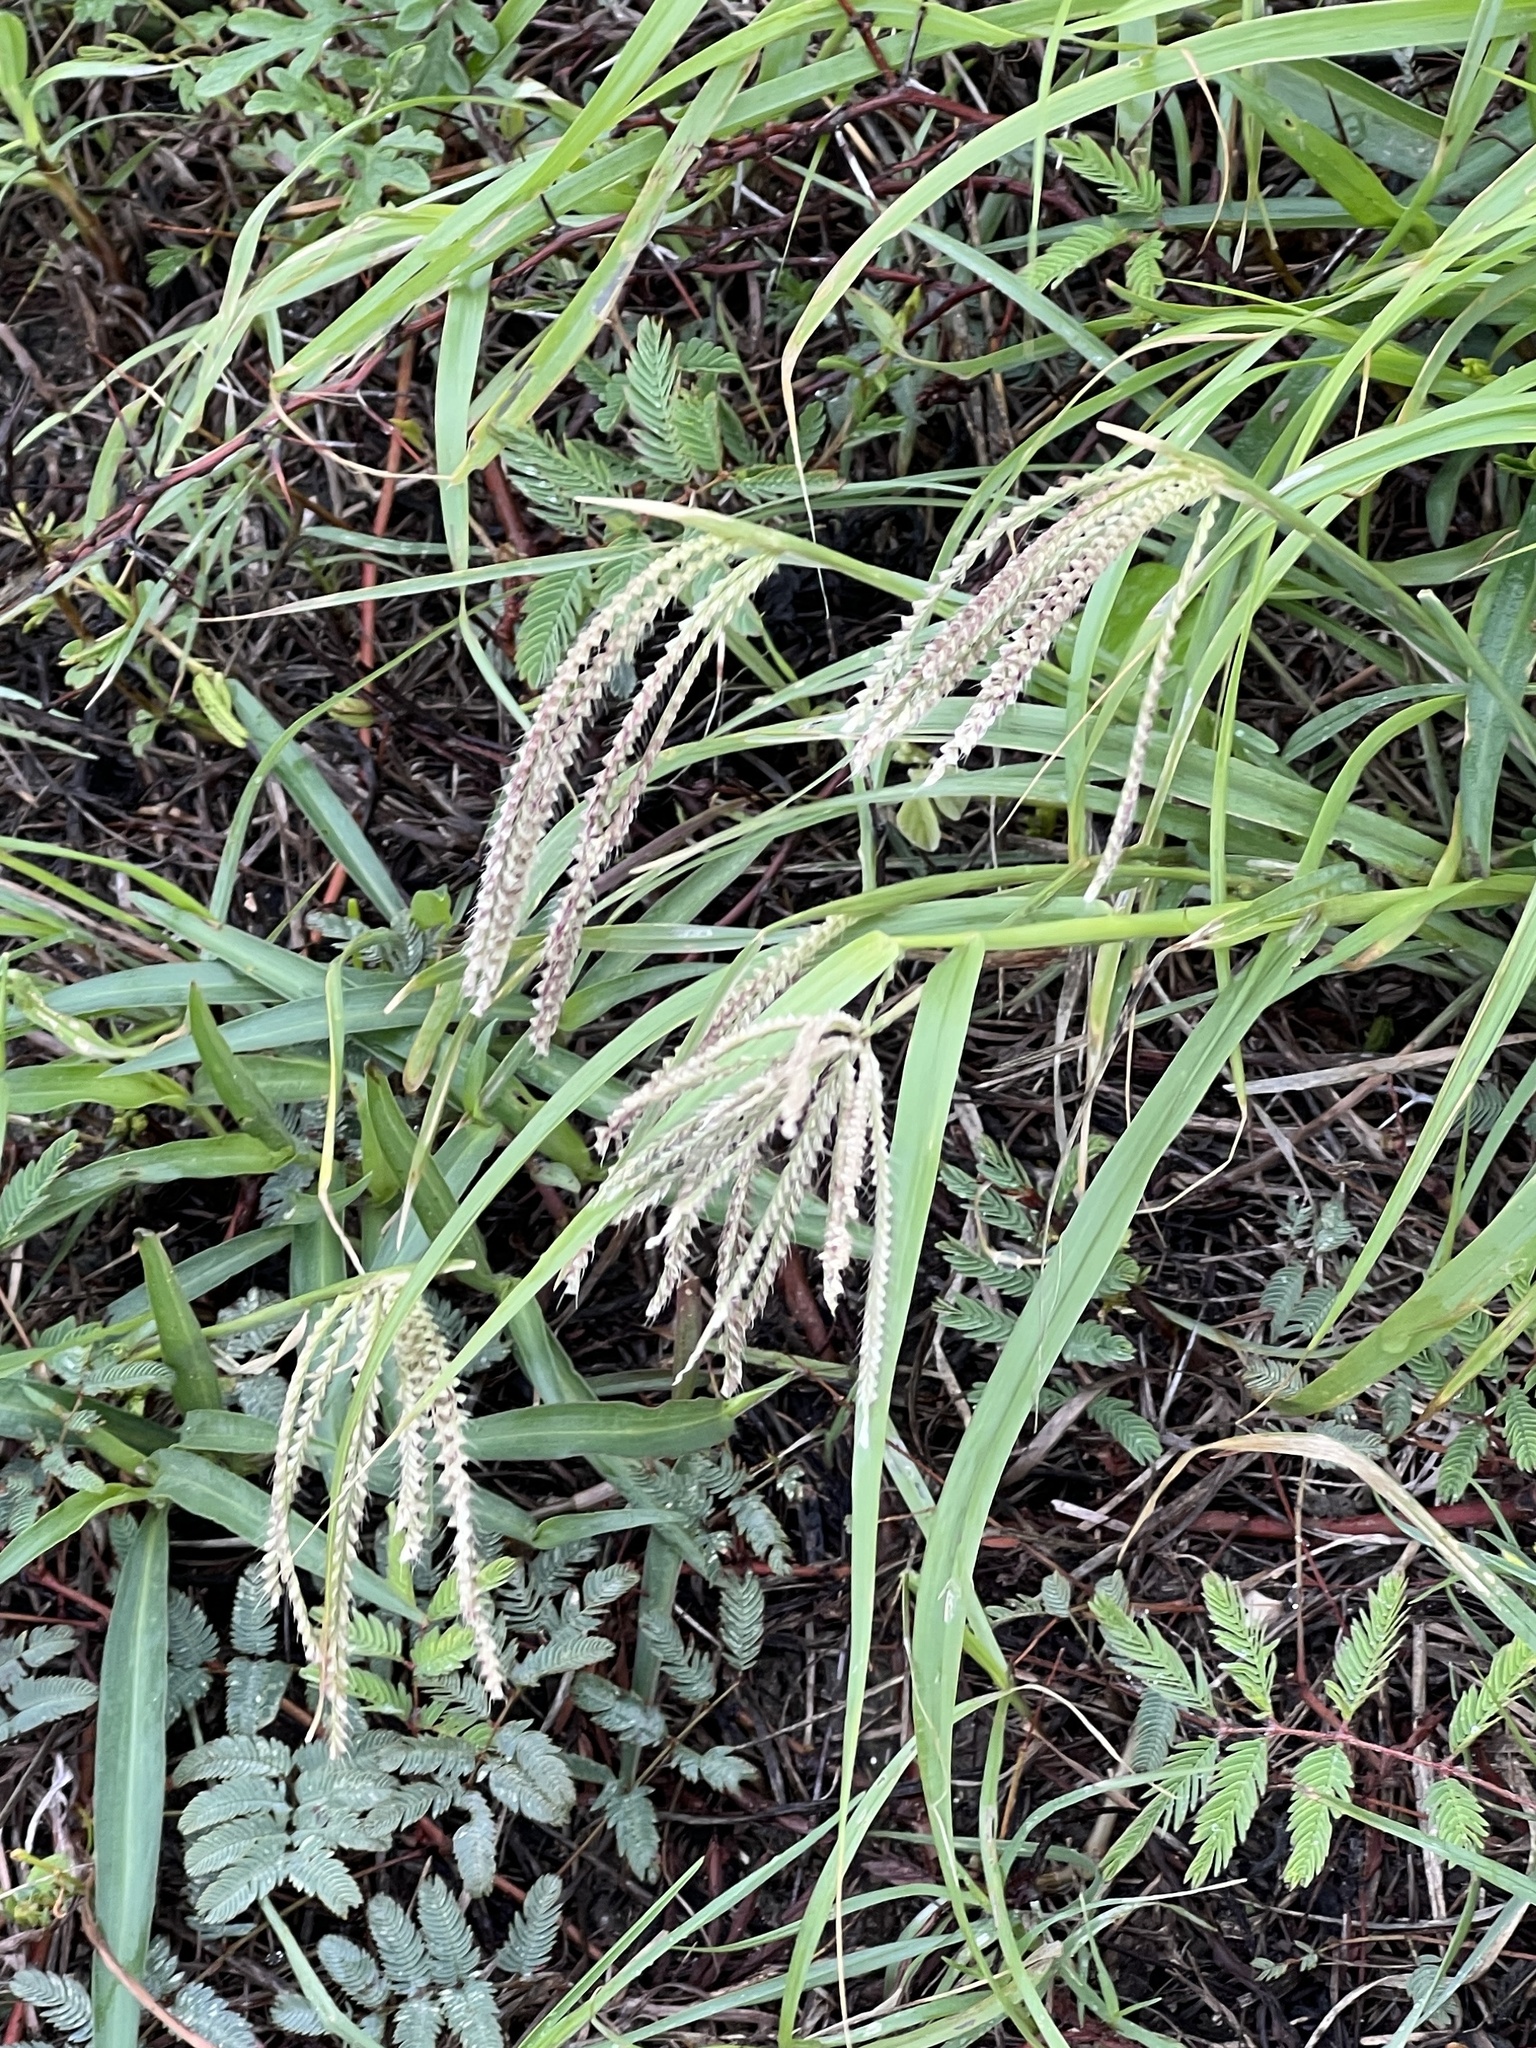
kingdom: Plantae
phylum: Tracheophyta
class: Liliopsida
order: Poales
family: Poaceae
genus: Chloris
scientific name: Chloris cucullata
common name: Hooded windmill grass
